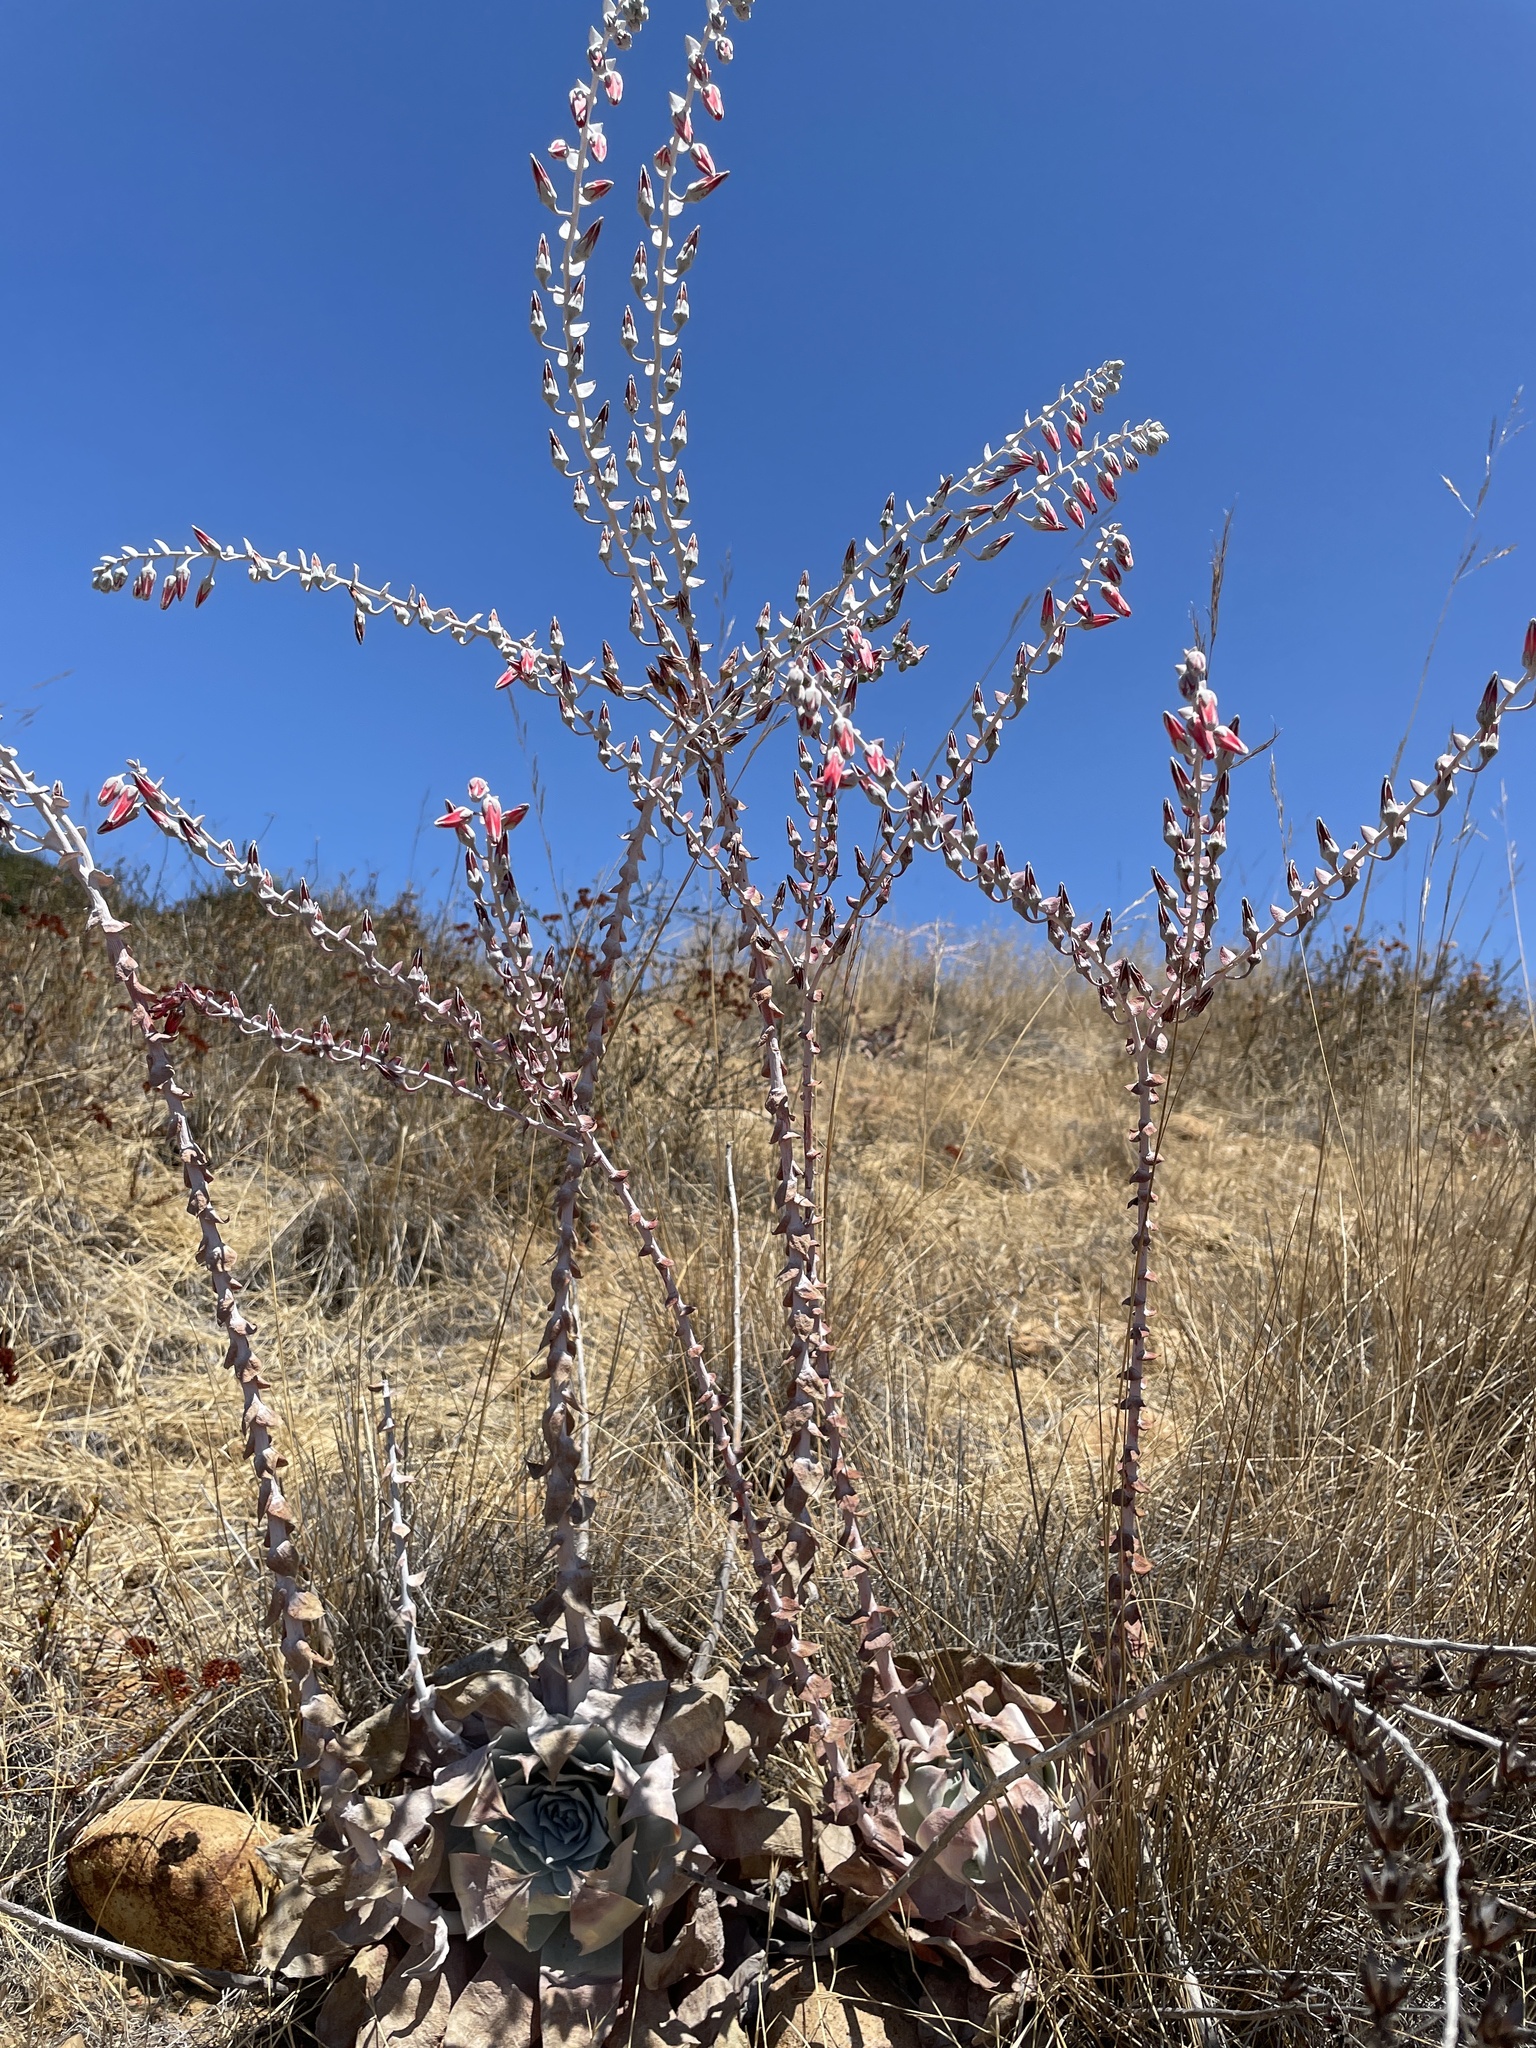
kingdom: Plantae
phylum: Tracheophyta
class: Magnoliopsida
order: Saxifragales
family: Crassulaceae
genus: Dudleya
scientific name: Dudleya pulverulenta
